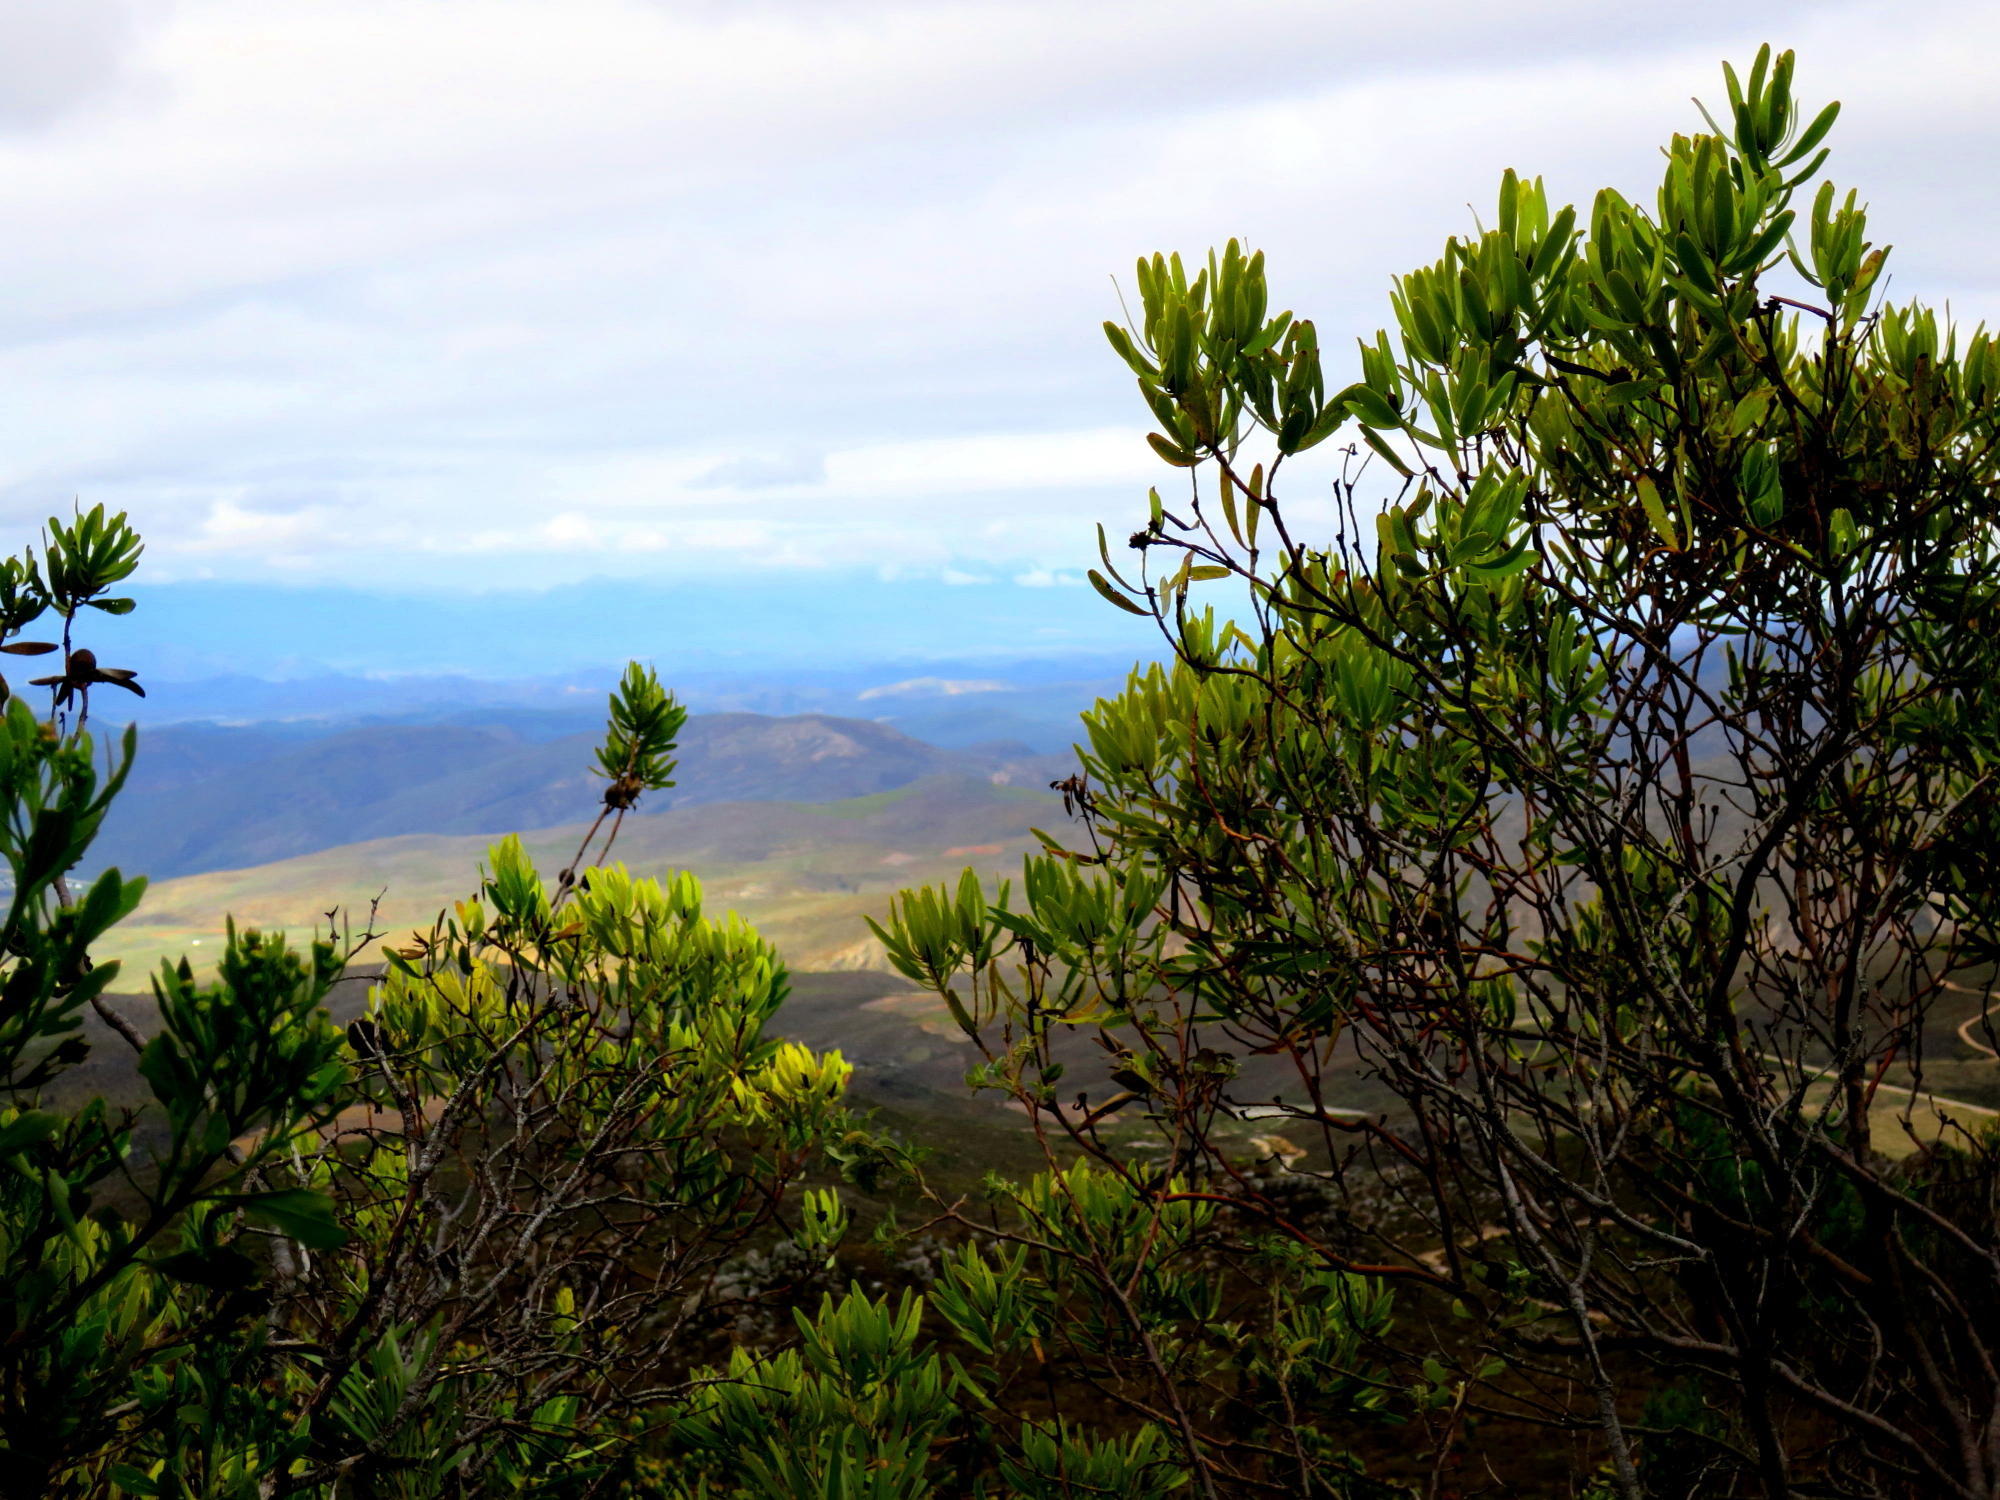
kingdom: Plantae
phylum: Tracheophyta
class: Magnoliopsida
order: Proteales
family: Proteaceae
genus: Leucadendron
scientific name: Leucadendron microcephalum
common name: Oilbract conebush
